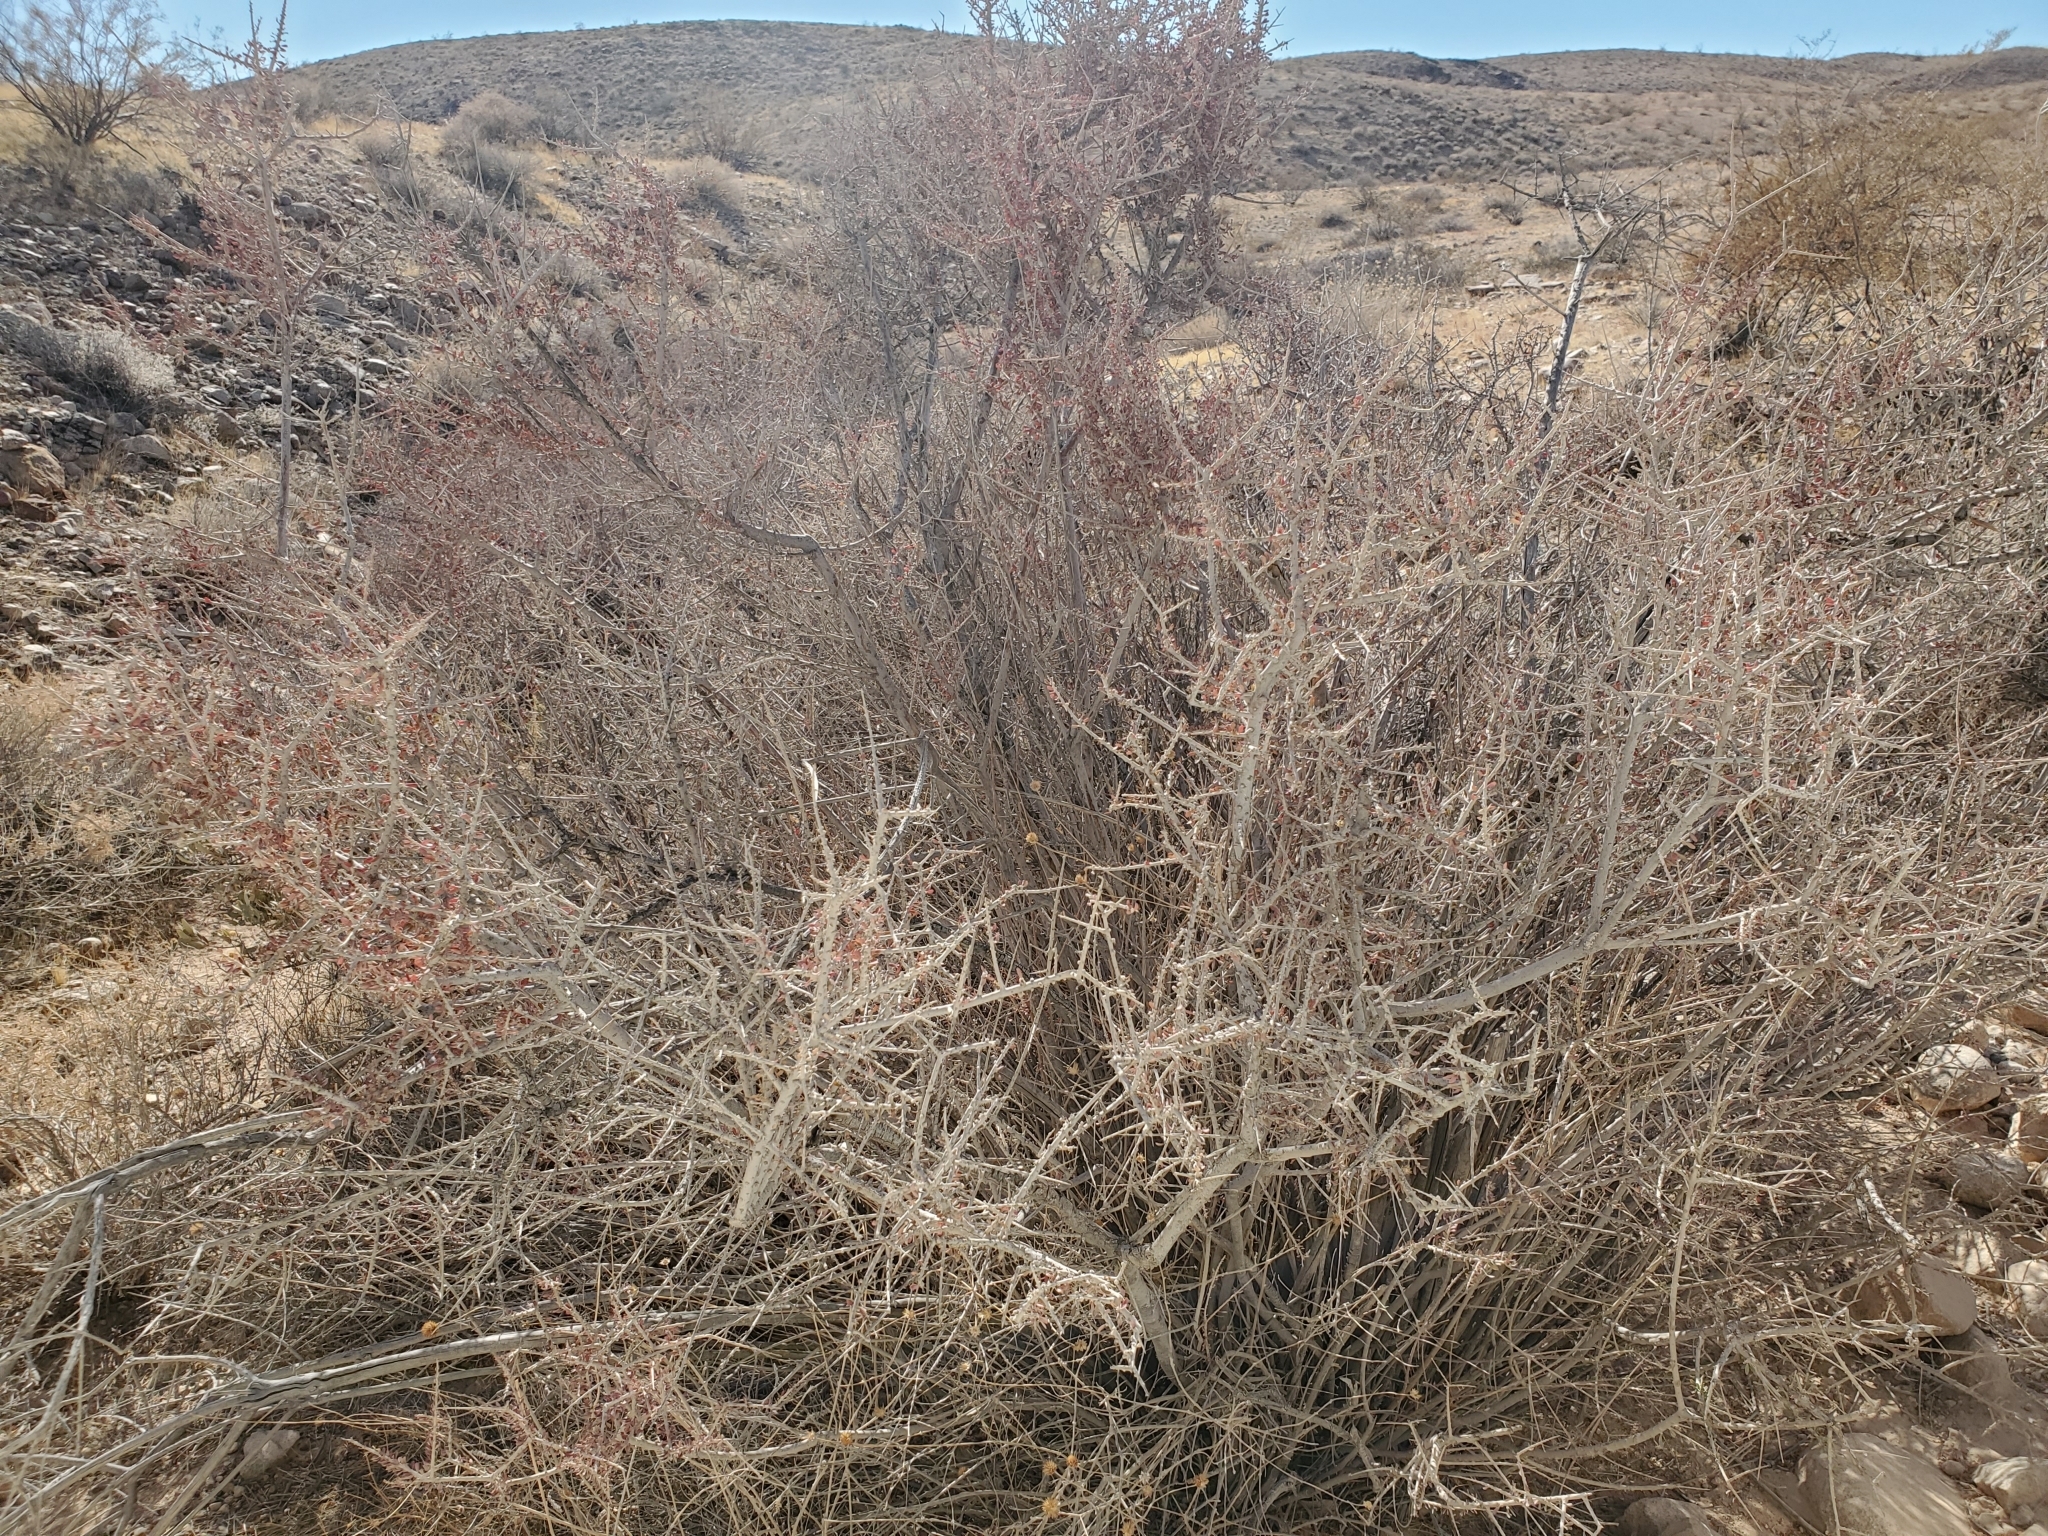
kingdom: Plantae
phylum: Tracheophyta
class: Magnoliopsida
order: Malpighiales
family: Picrodendraceae
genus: Tetracoccus
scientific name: Tetracoccus hallii
